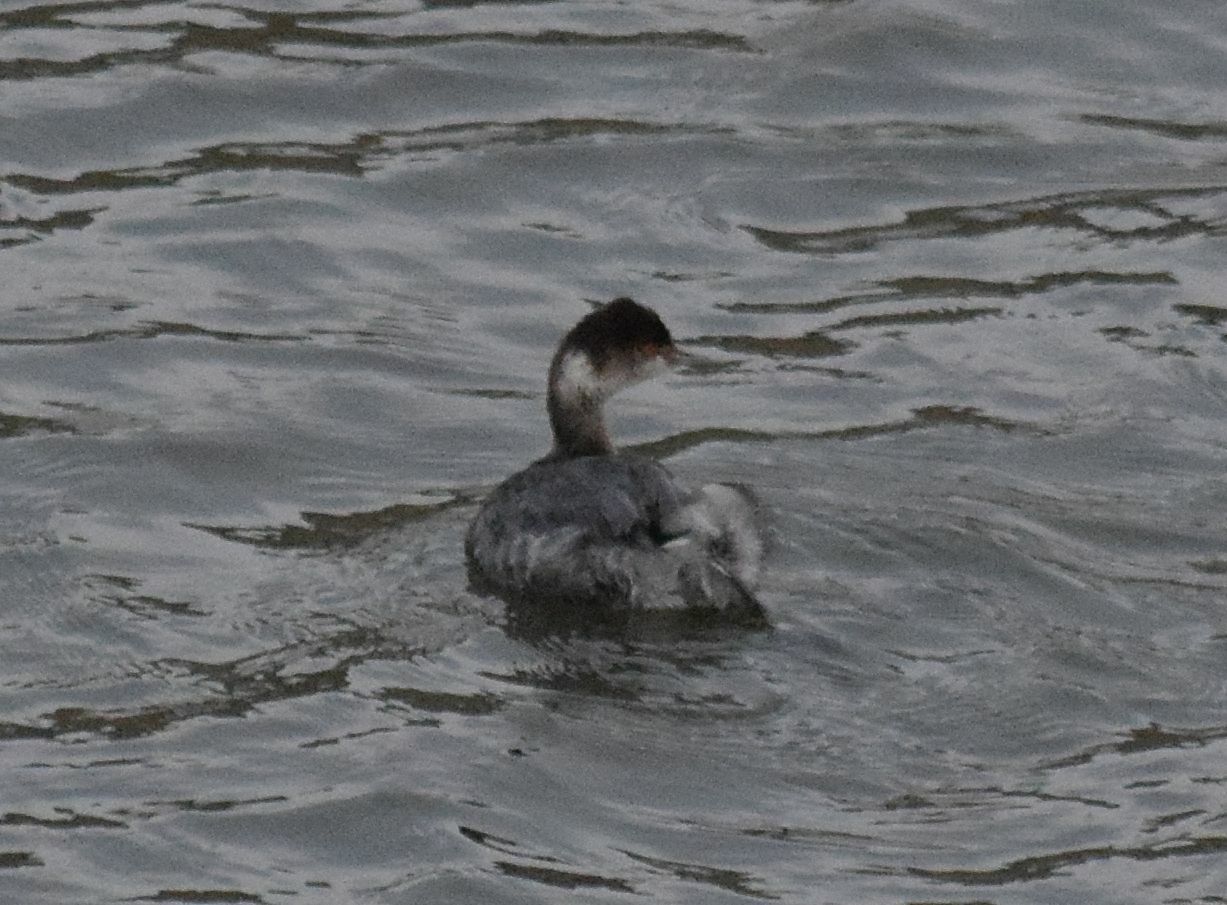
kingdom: Animalia
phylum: Chordata
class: Aves
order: Podicipediformes
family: Podicipedidae
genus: Podiceps
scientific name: Podiceps nigricollis
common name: Black-necked grebe
